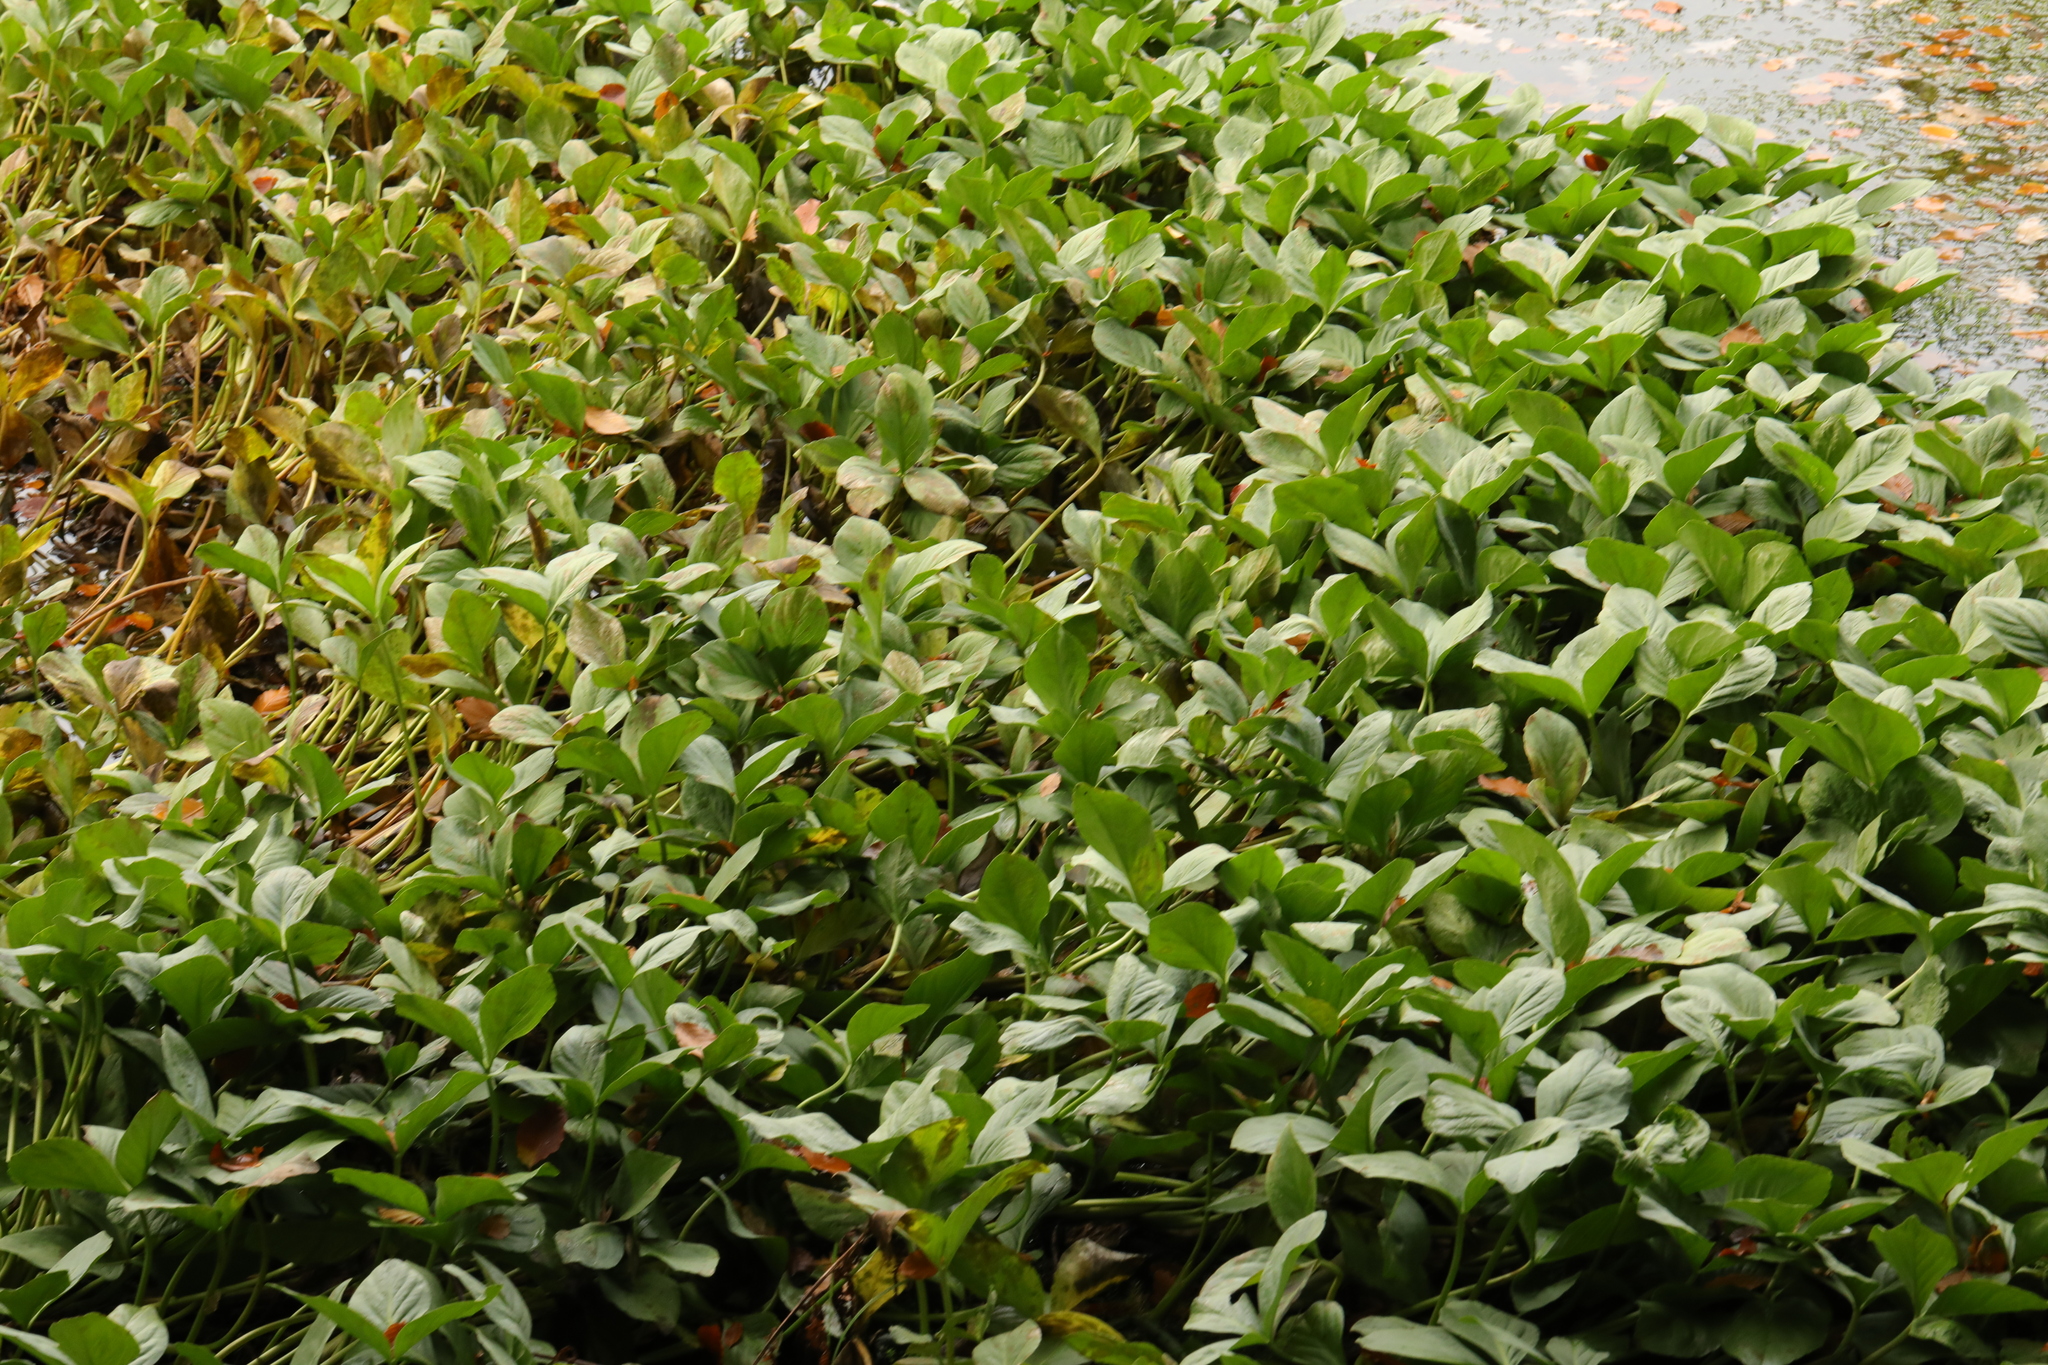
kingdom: Plantae
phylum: Tracheophyta
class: Magnoliopsida
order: Asterales
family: Menyanthaceae
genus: Menyanthes
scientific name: Menyanthes trifoliata
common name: Bogbean
